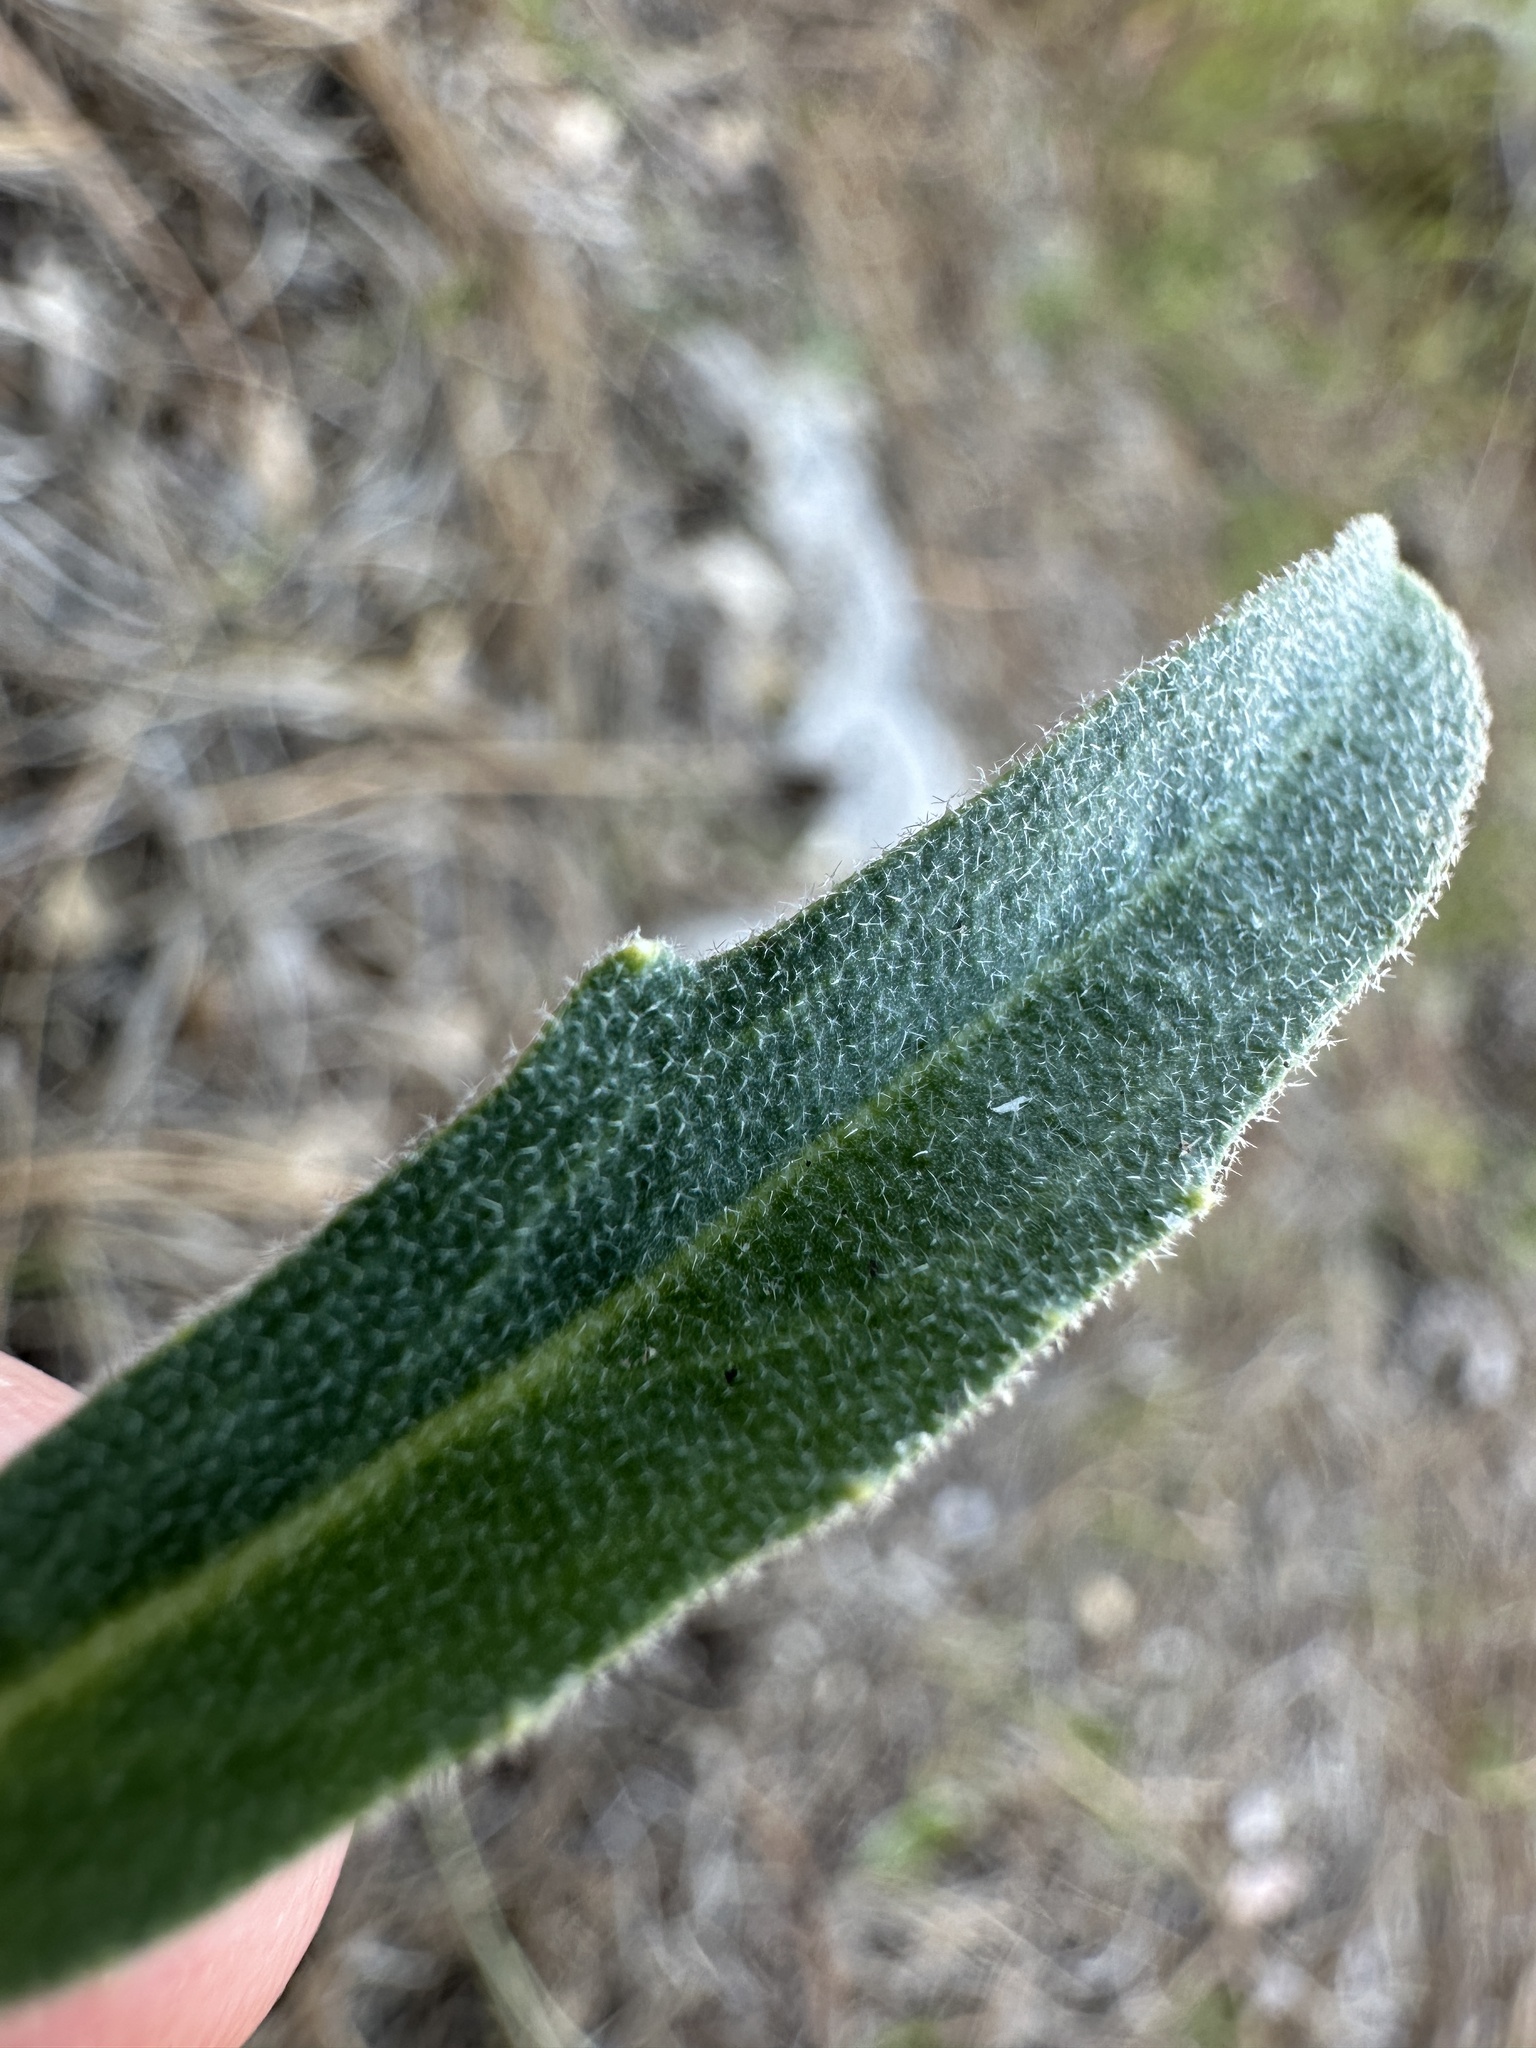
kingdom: Plantae
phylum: Tracheophyta
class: Magnoliopsida
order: Brassicales
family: Brassicaceae
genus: Boechera
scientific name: Boechera arcuata
